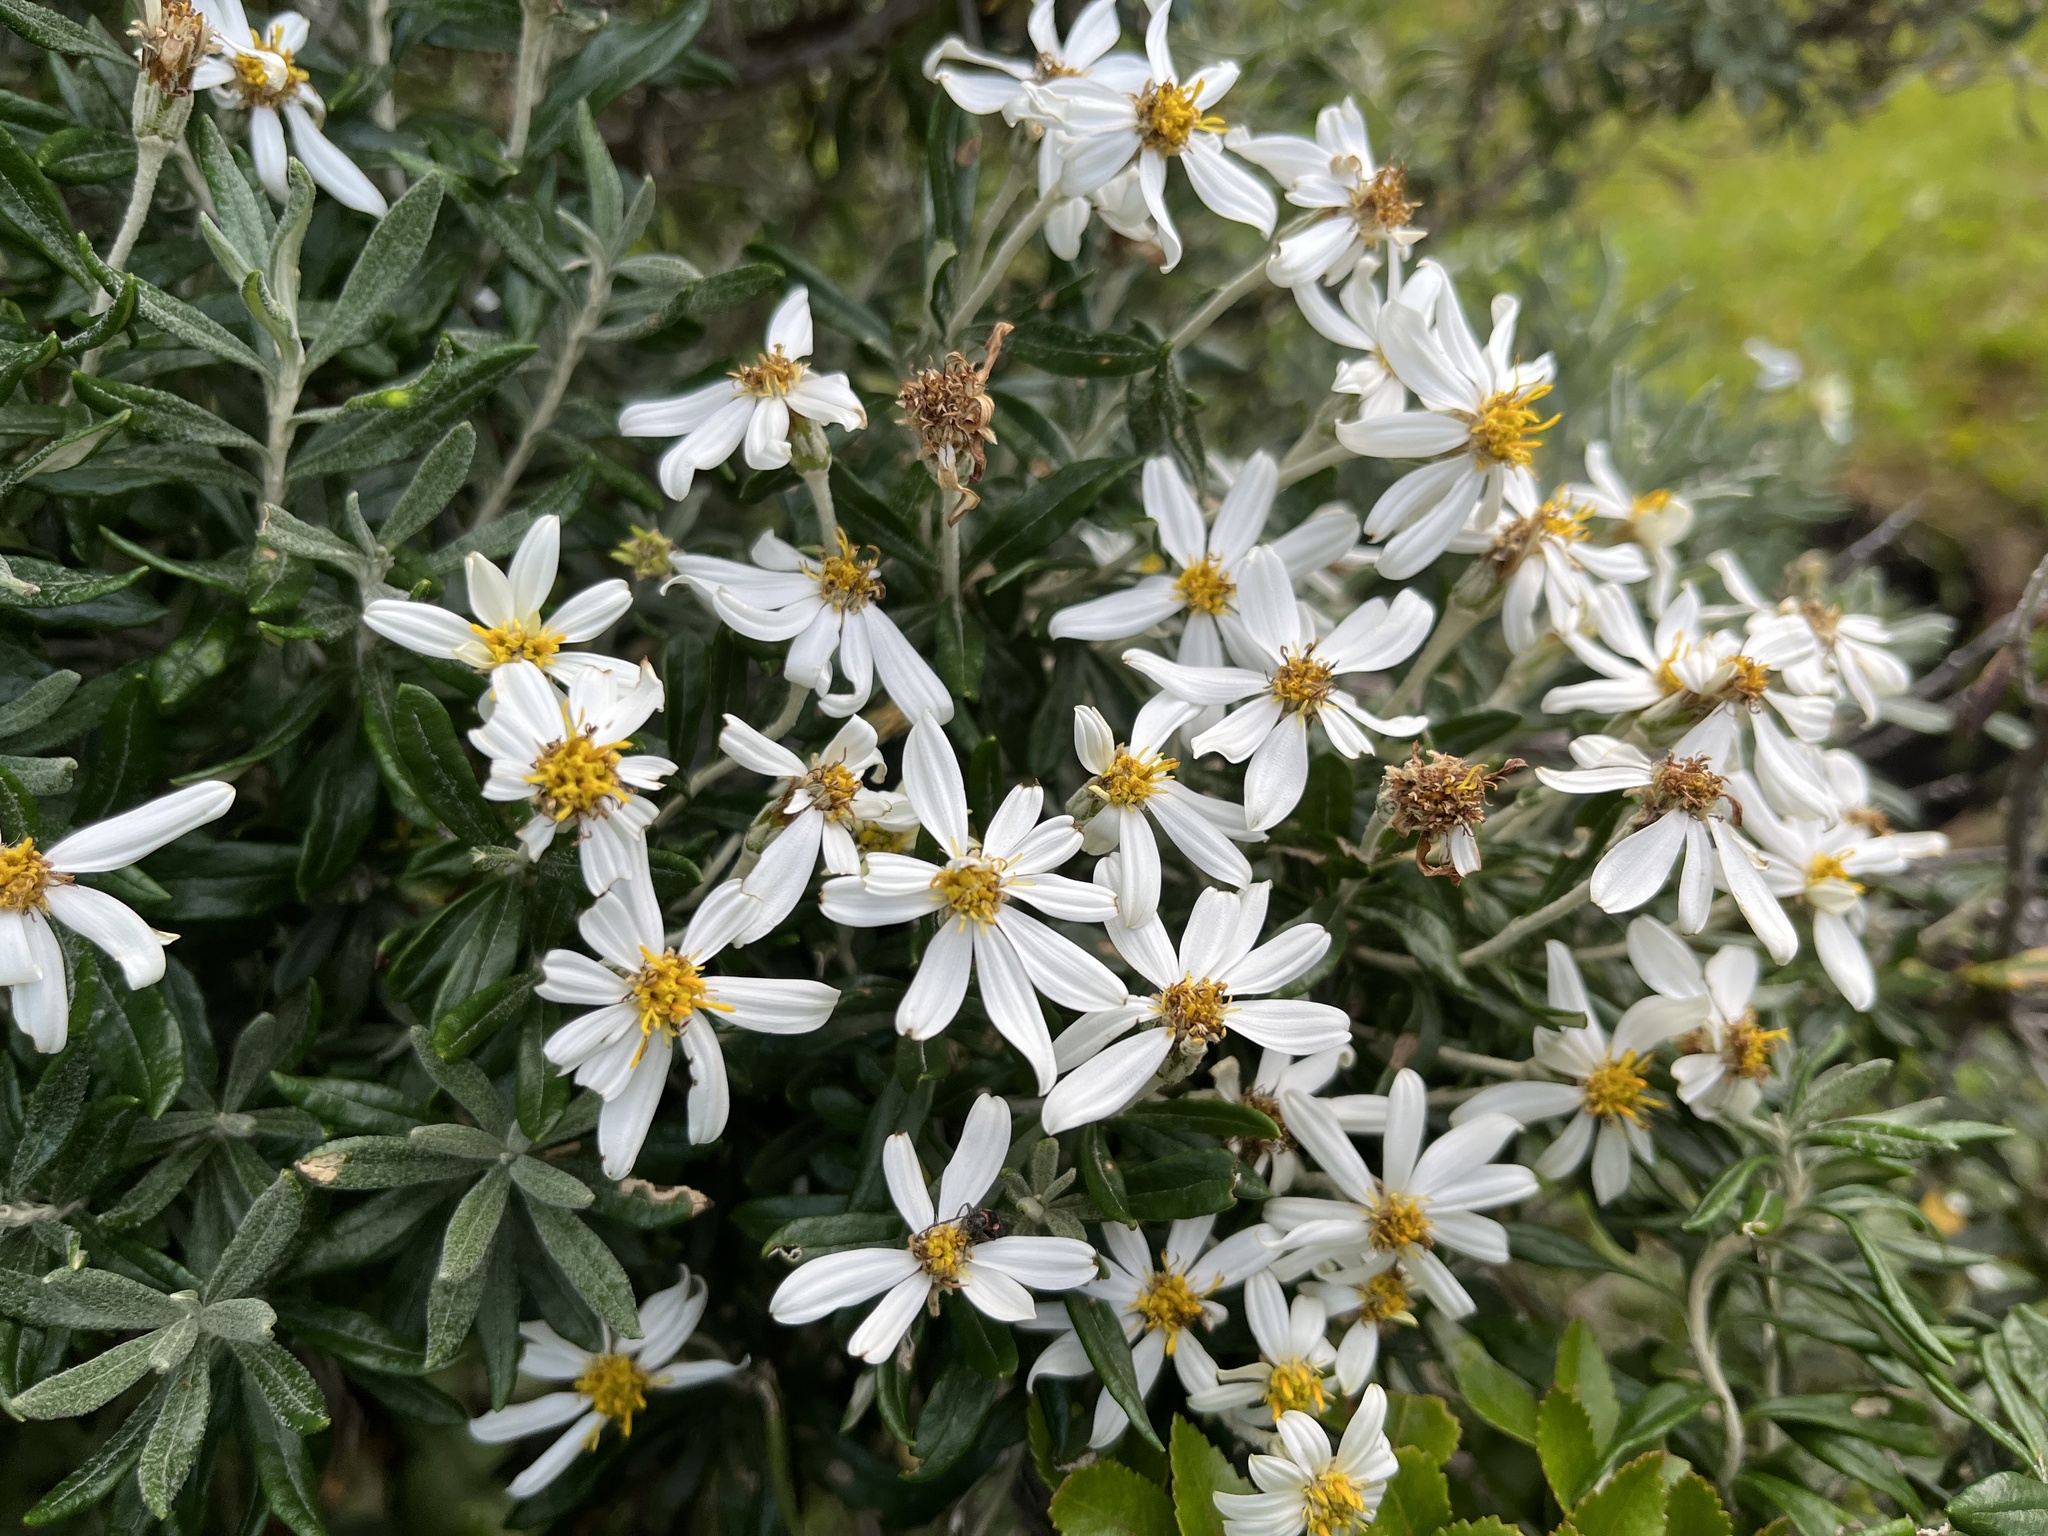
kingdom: Plantae
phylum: Tracheophyta
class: Magnoliopsida
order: Asterales
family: Asteraceae
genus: Chiliotrichum
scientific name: Chiliotrichum diffusum
